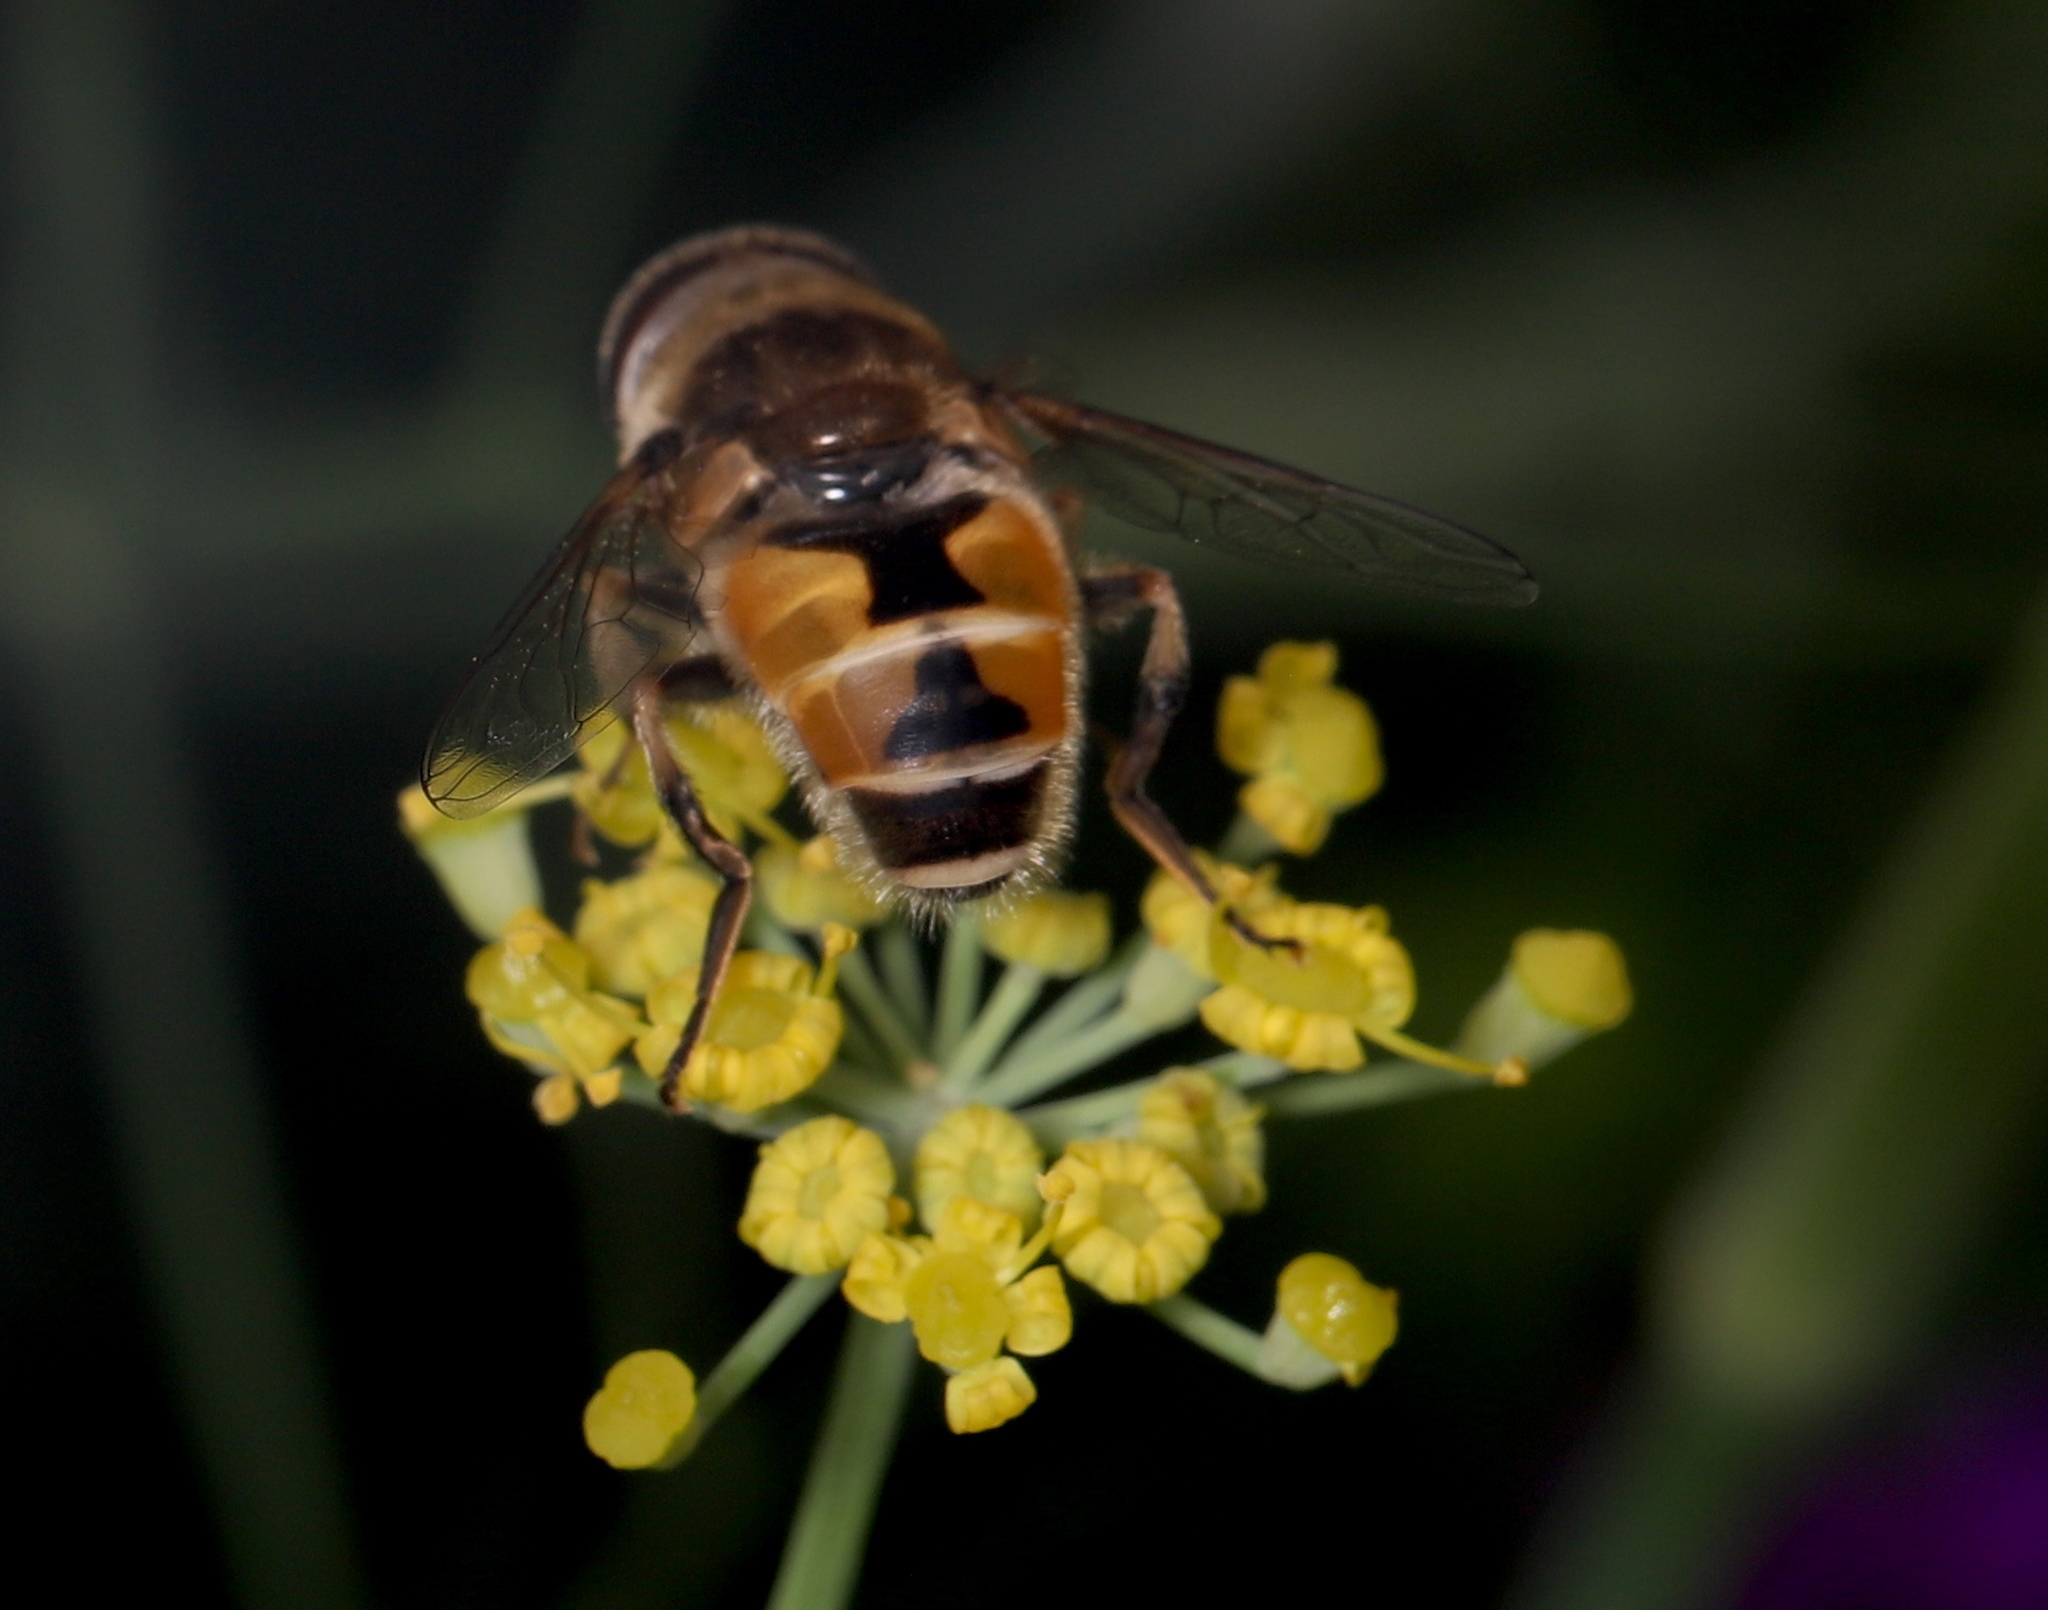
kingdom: Animalia
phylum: Arthropoda
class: Insecta
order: Diptera
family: Syrphidae
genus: Eristalis
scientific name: Eristalis arbustorum
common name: Hover fly
